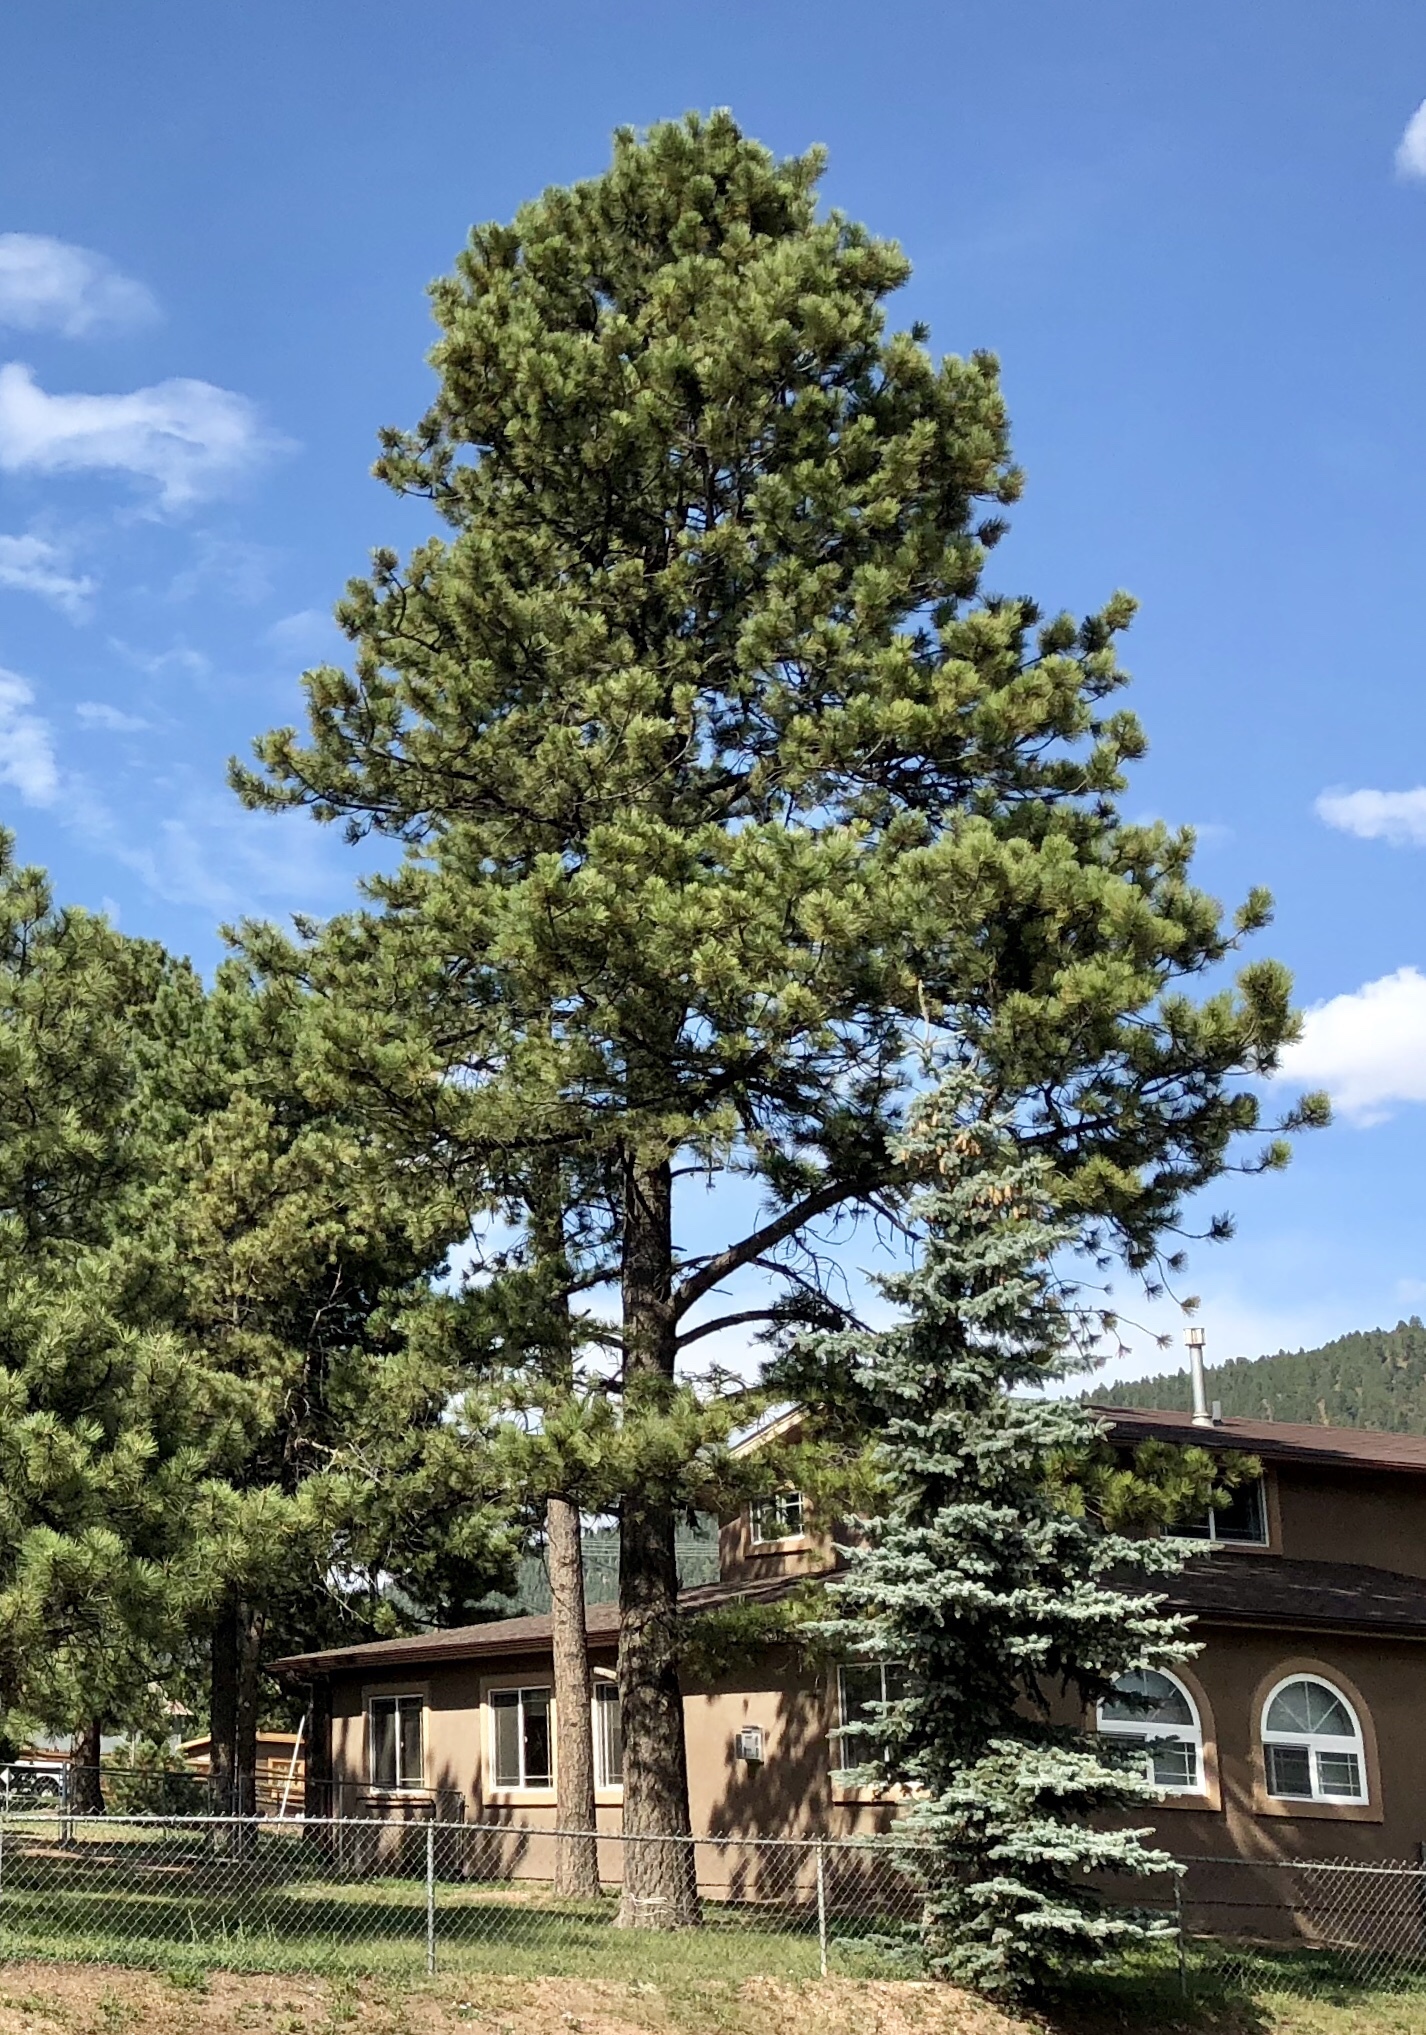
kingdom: Plantae
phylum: Tracheophyta
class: Pinopsida
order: Pinales
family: Pinaceae
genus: Pinus
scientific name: Pinus ponderosa
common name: Western yellow-pine
